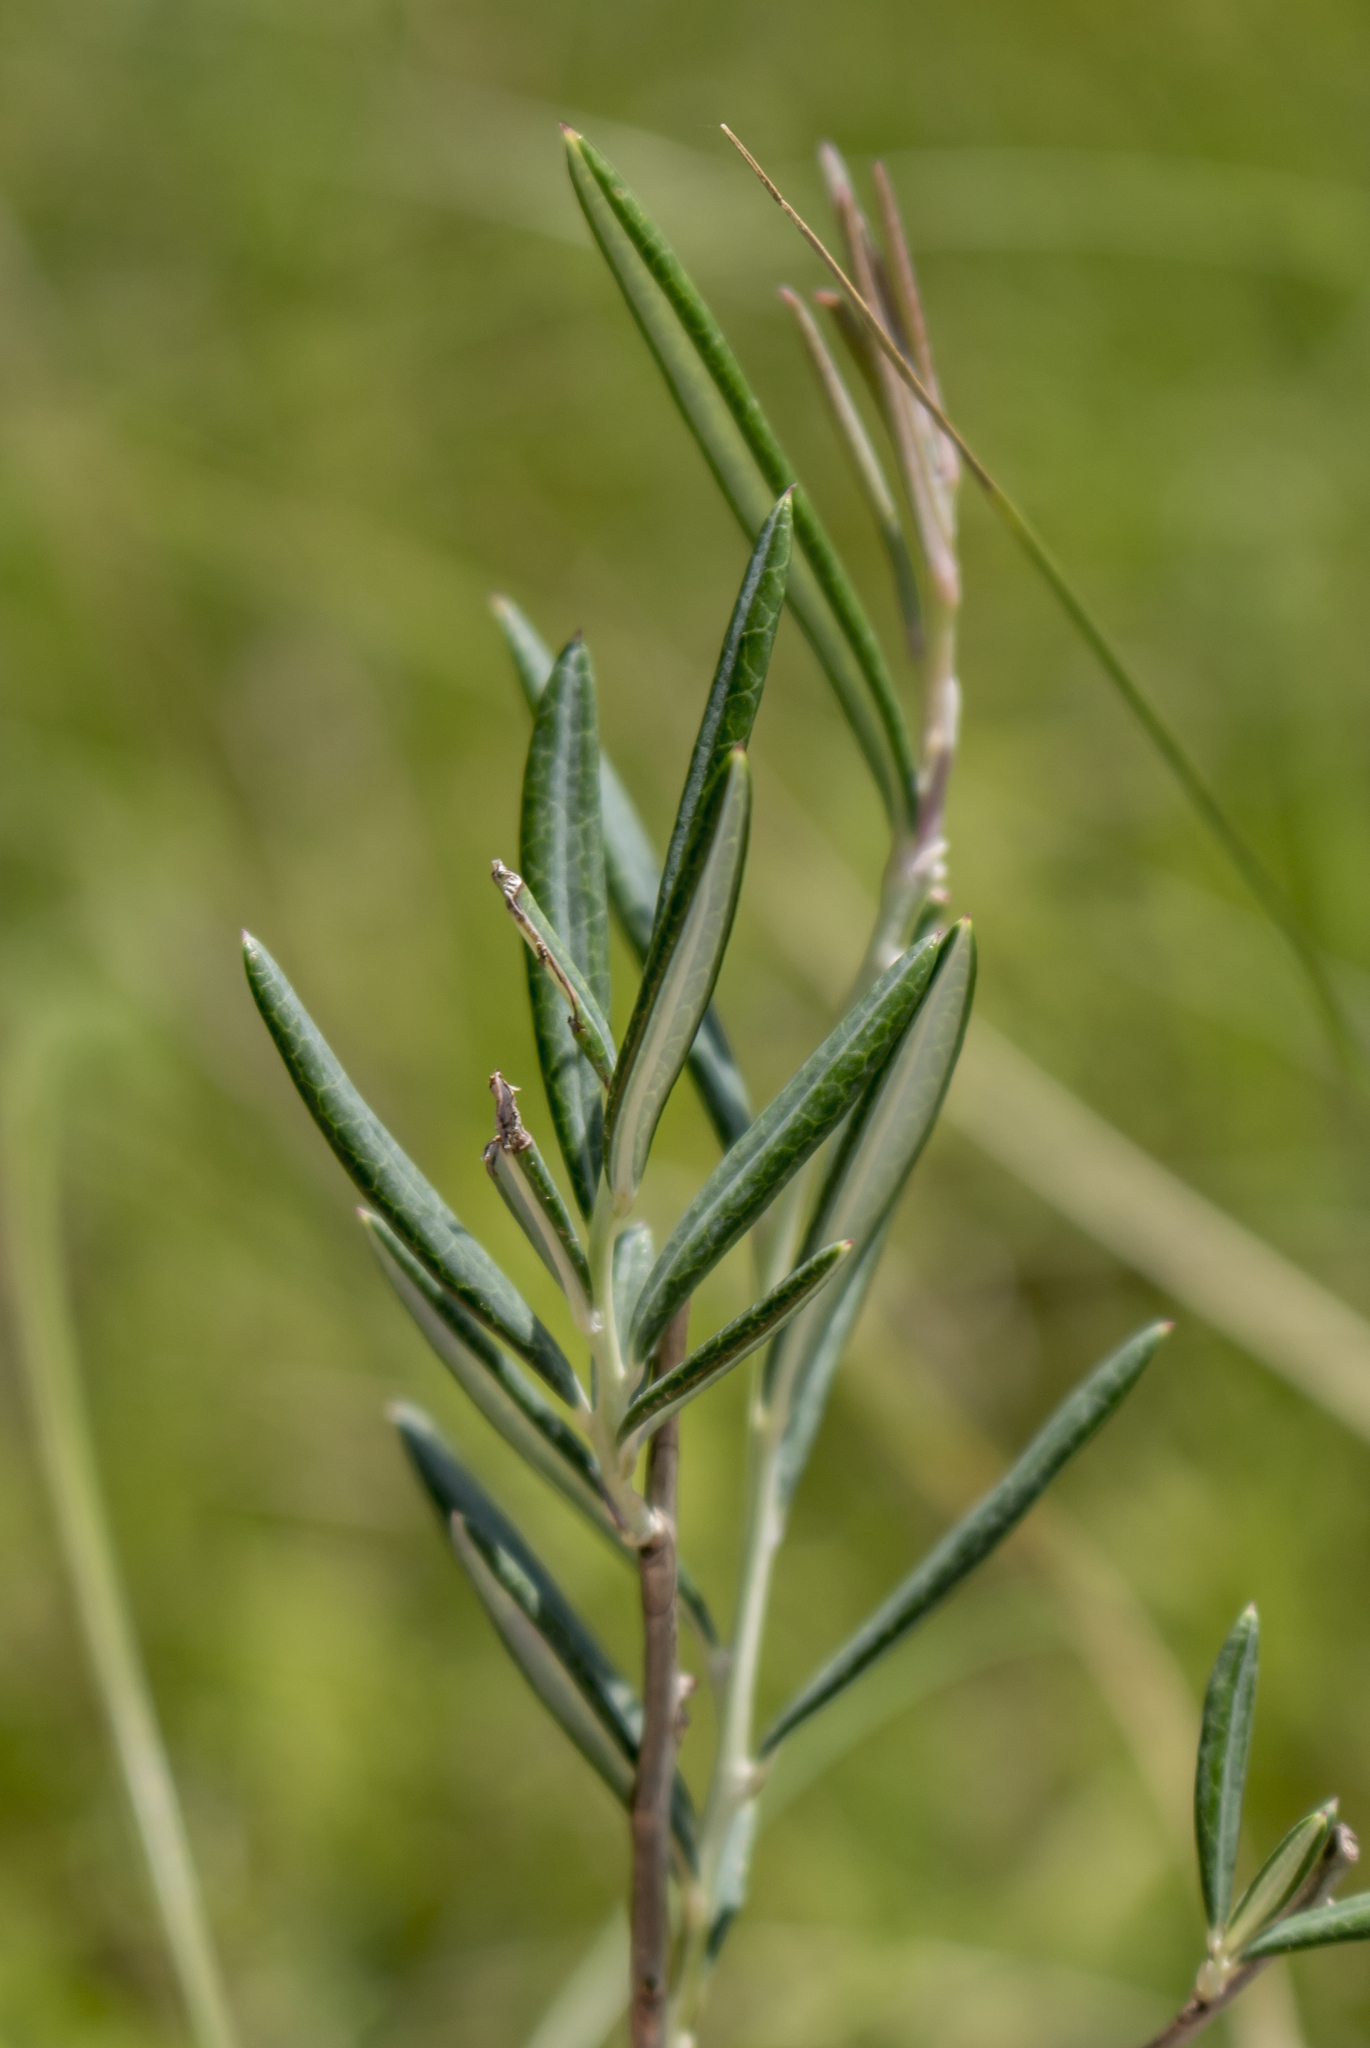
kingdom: Plantae
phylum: Tracheophyta
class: Magnoliopsida
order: Ericales
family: Ericaceae
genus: Andromeda
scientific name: Andromeda polifolia
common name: Bog-rosemary
